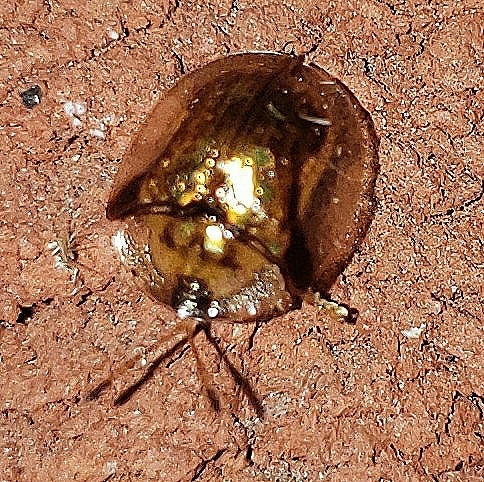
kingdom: Animalia
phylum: Arthropoda
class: Insecta
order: Coleoptera
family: Chrysomelidae
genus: Deloyala
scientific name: Deloyala guttata
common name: Mottled tortoise beetle
